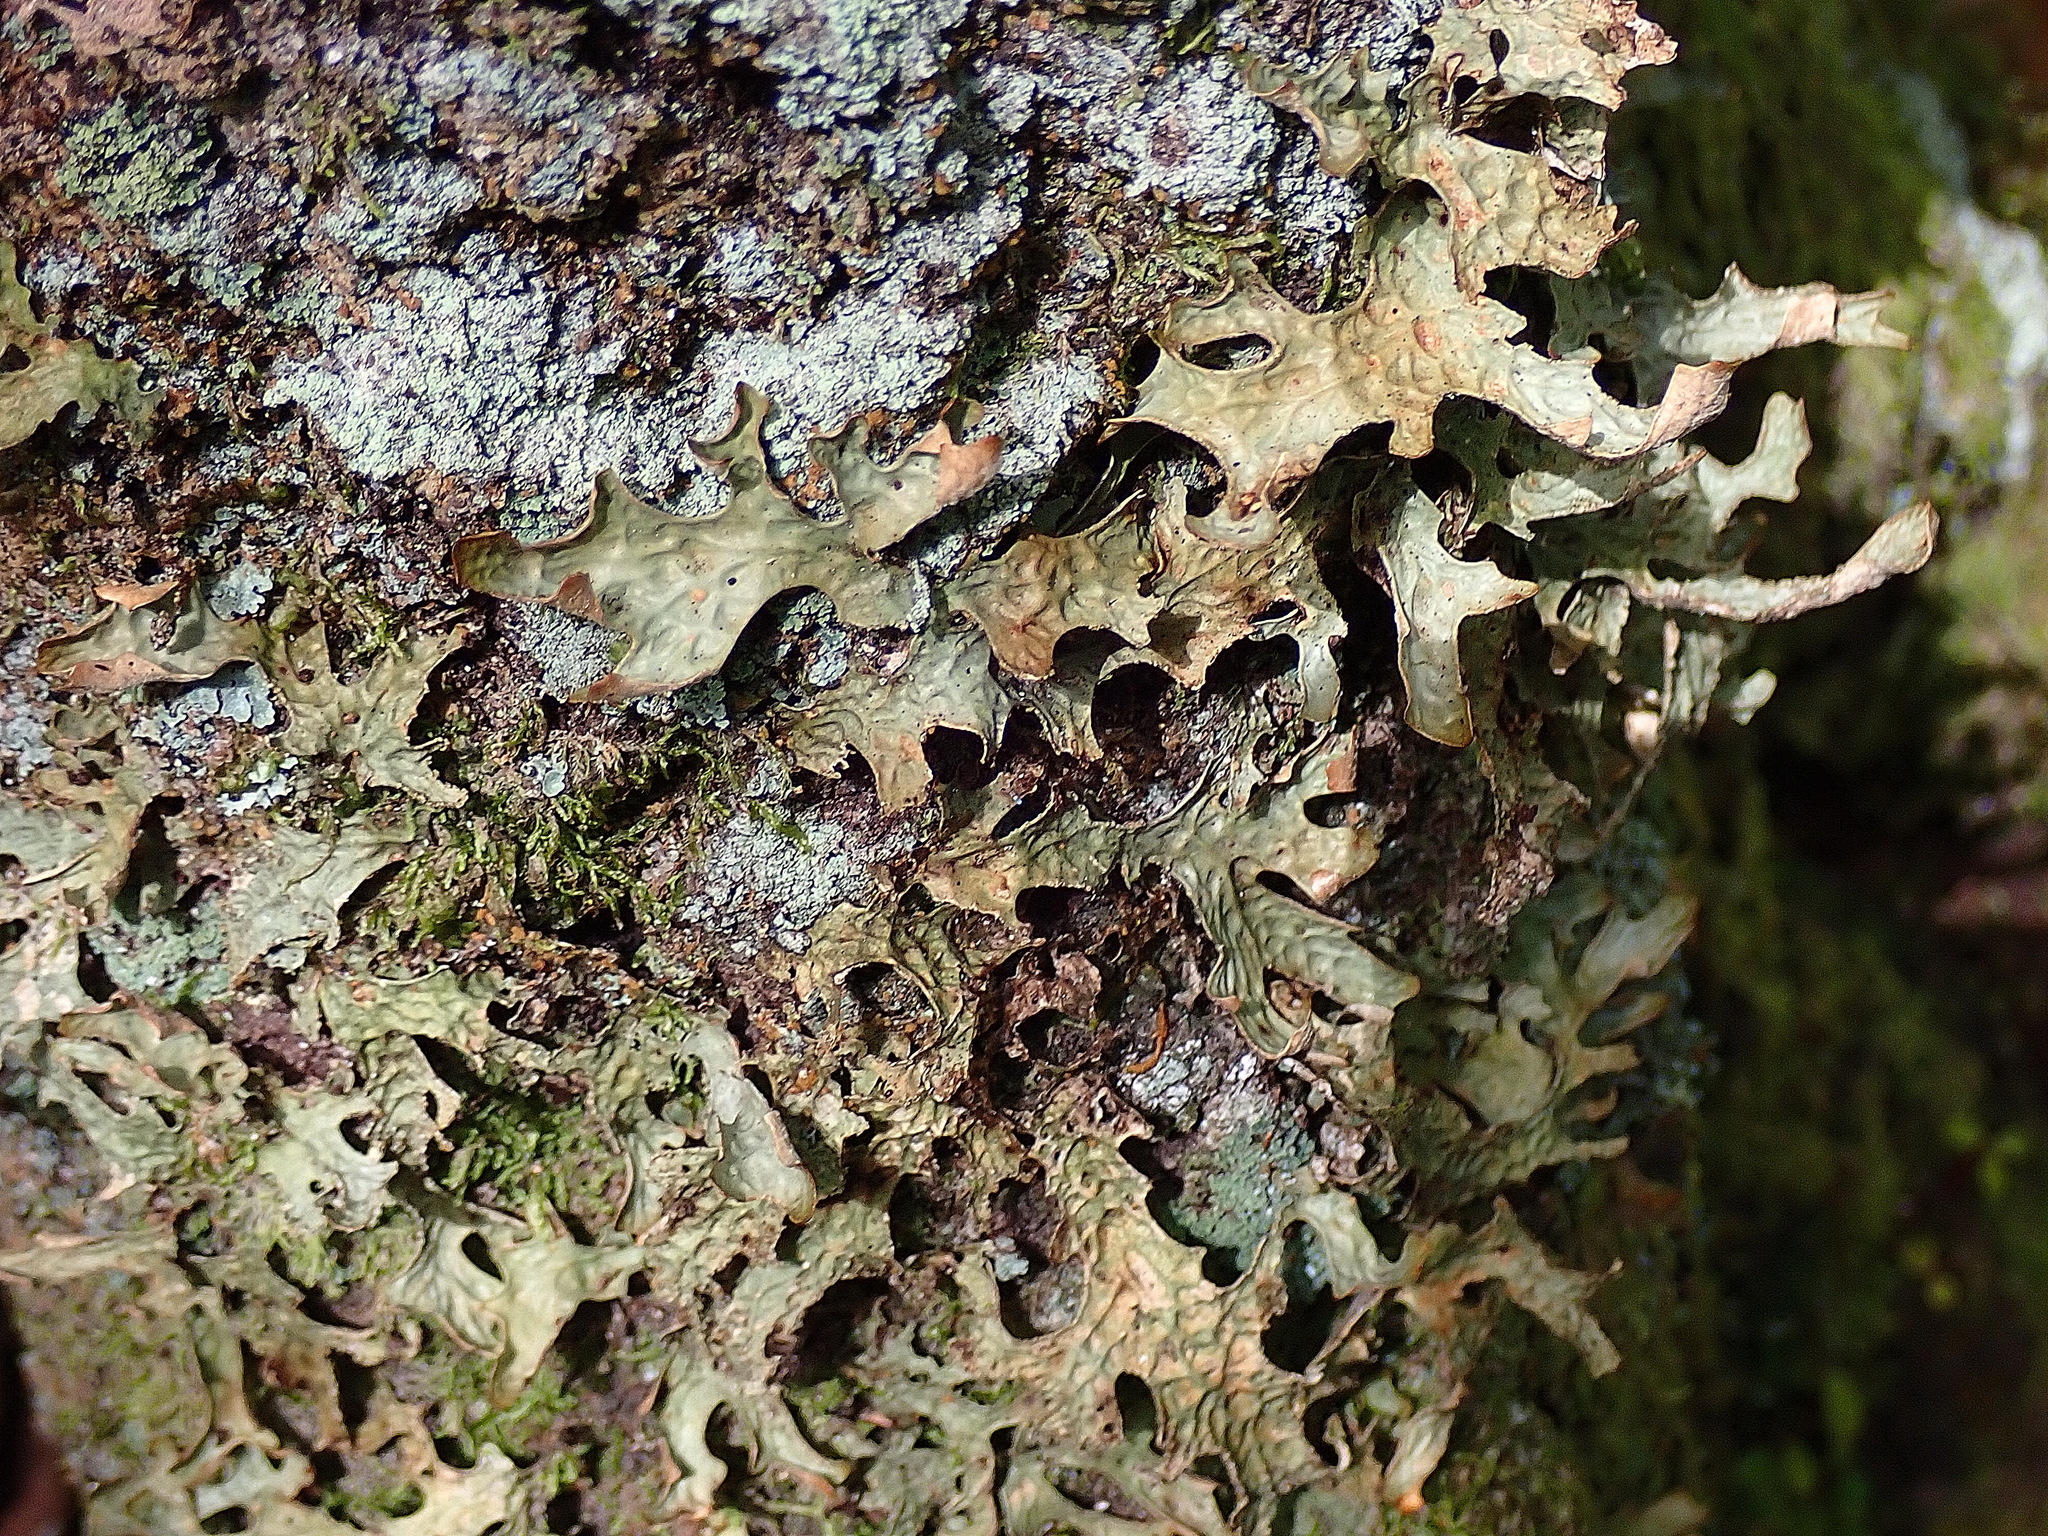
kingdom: Fungi
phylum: Ascomycota
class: Lecanoromycetes
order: Peltigerales
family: Lobariaceae
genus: Lobaria
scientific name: Lobaria pulmonaria
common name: Lungwort
